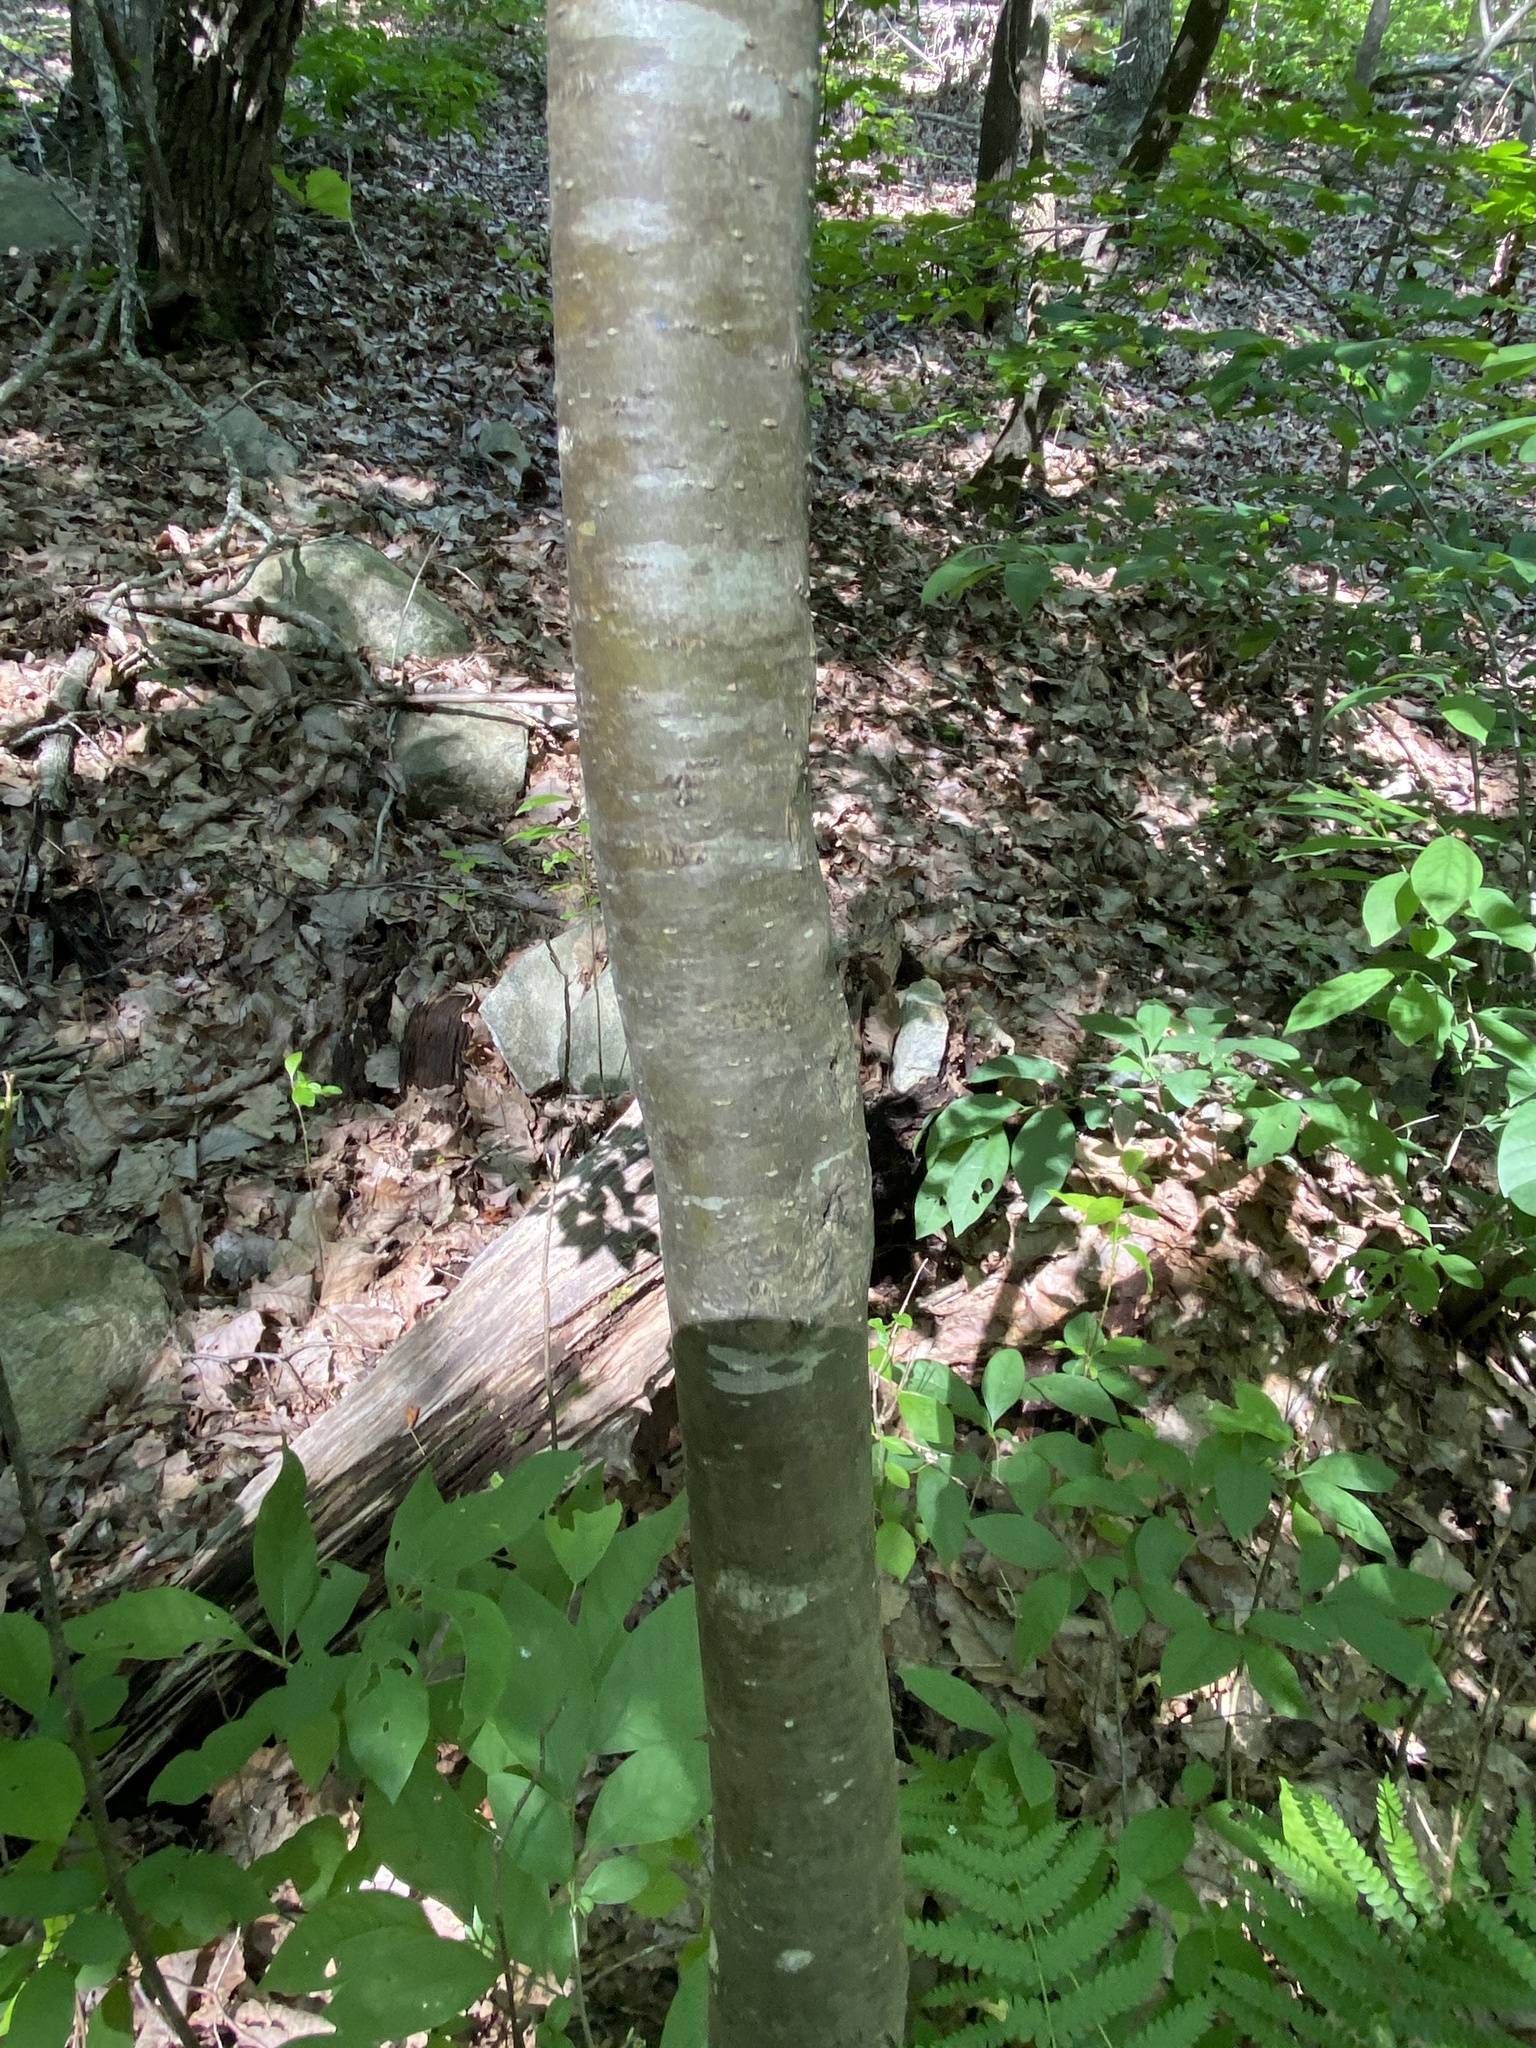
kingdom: Plantae
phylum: Tracheophyta
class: Magnoliopsida
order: Aquifoliales
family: Aquifoliaceae
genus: Ilex
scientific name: Ilex montana
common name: Mountain winterberry
